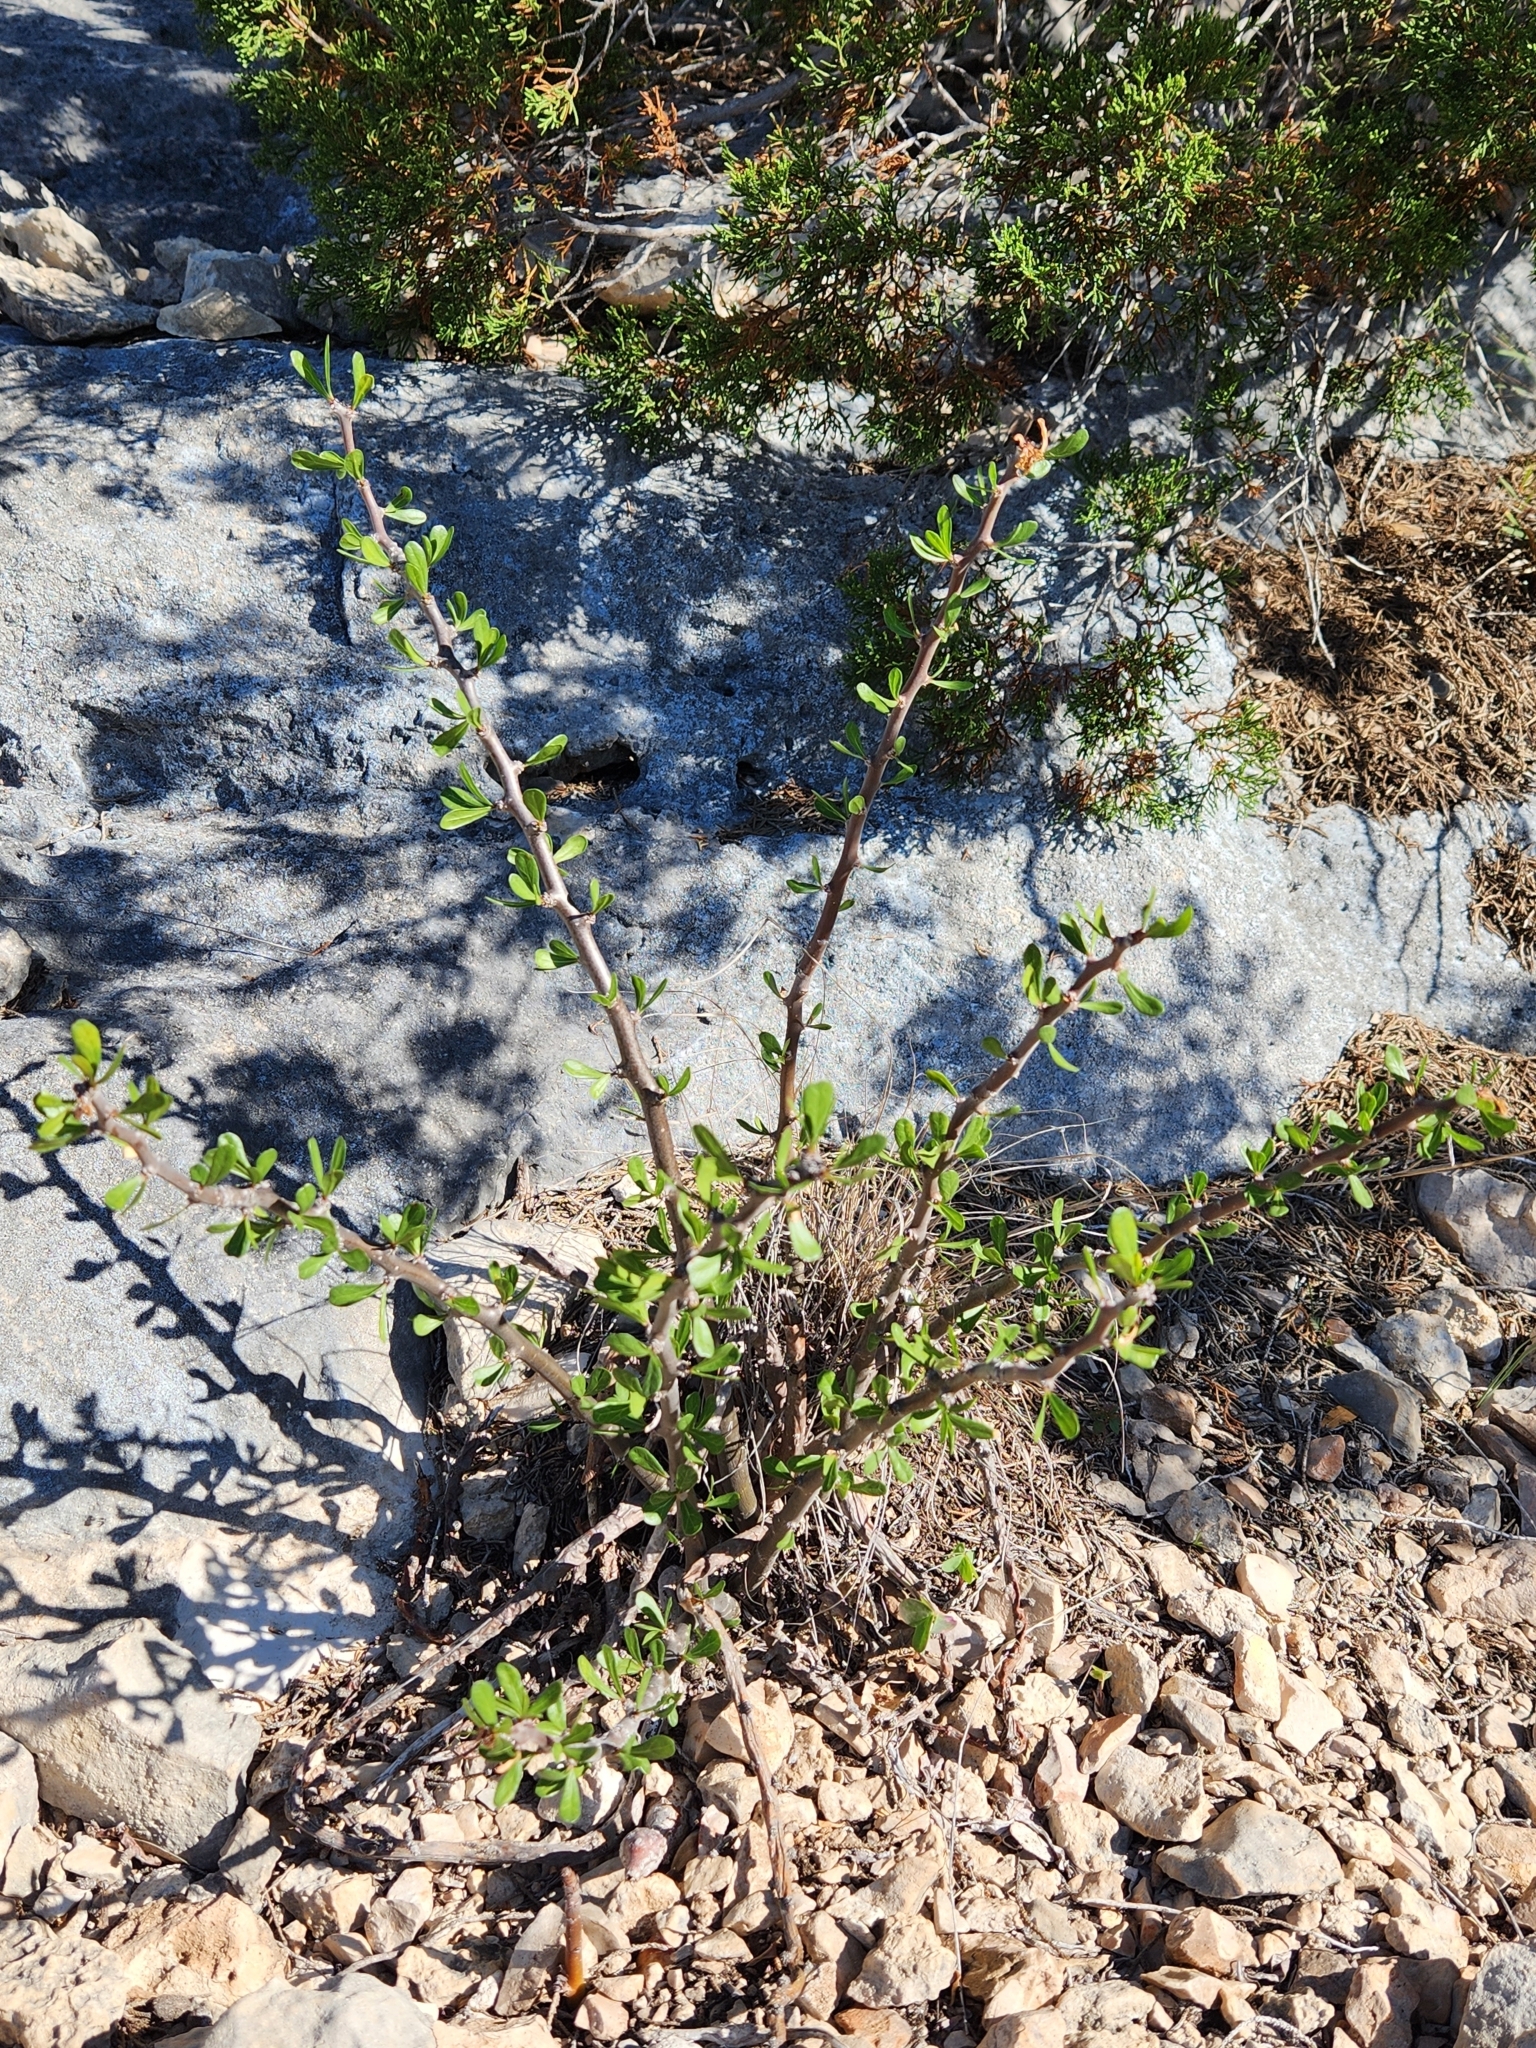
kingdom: Plantae
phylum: Tracheophyta
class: Magnoliopsida
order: Malpighiales
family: Euphorbiaceae
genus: Jatropha
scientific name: Jatropha dioica
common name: Leatherstem
